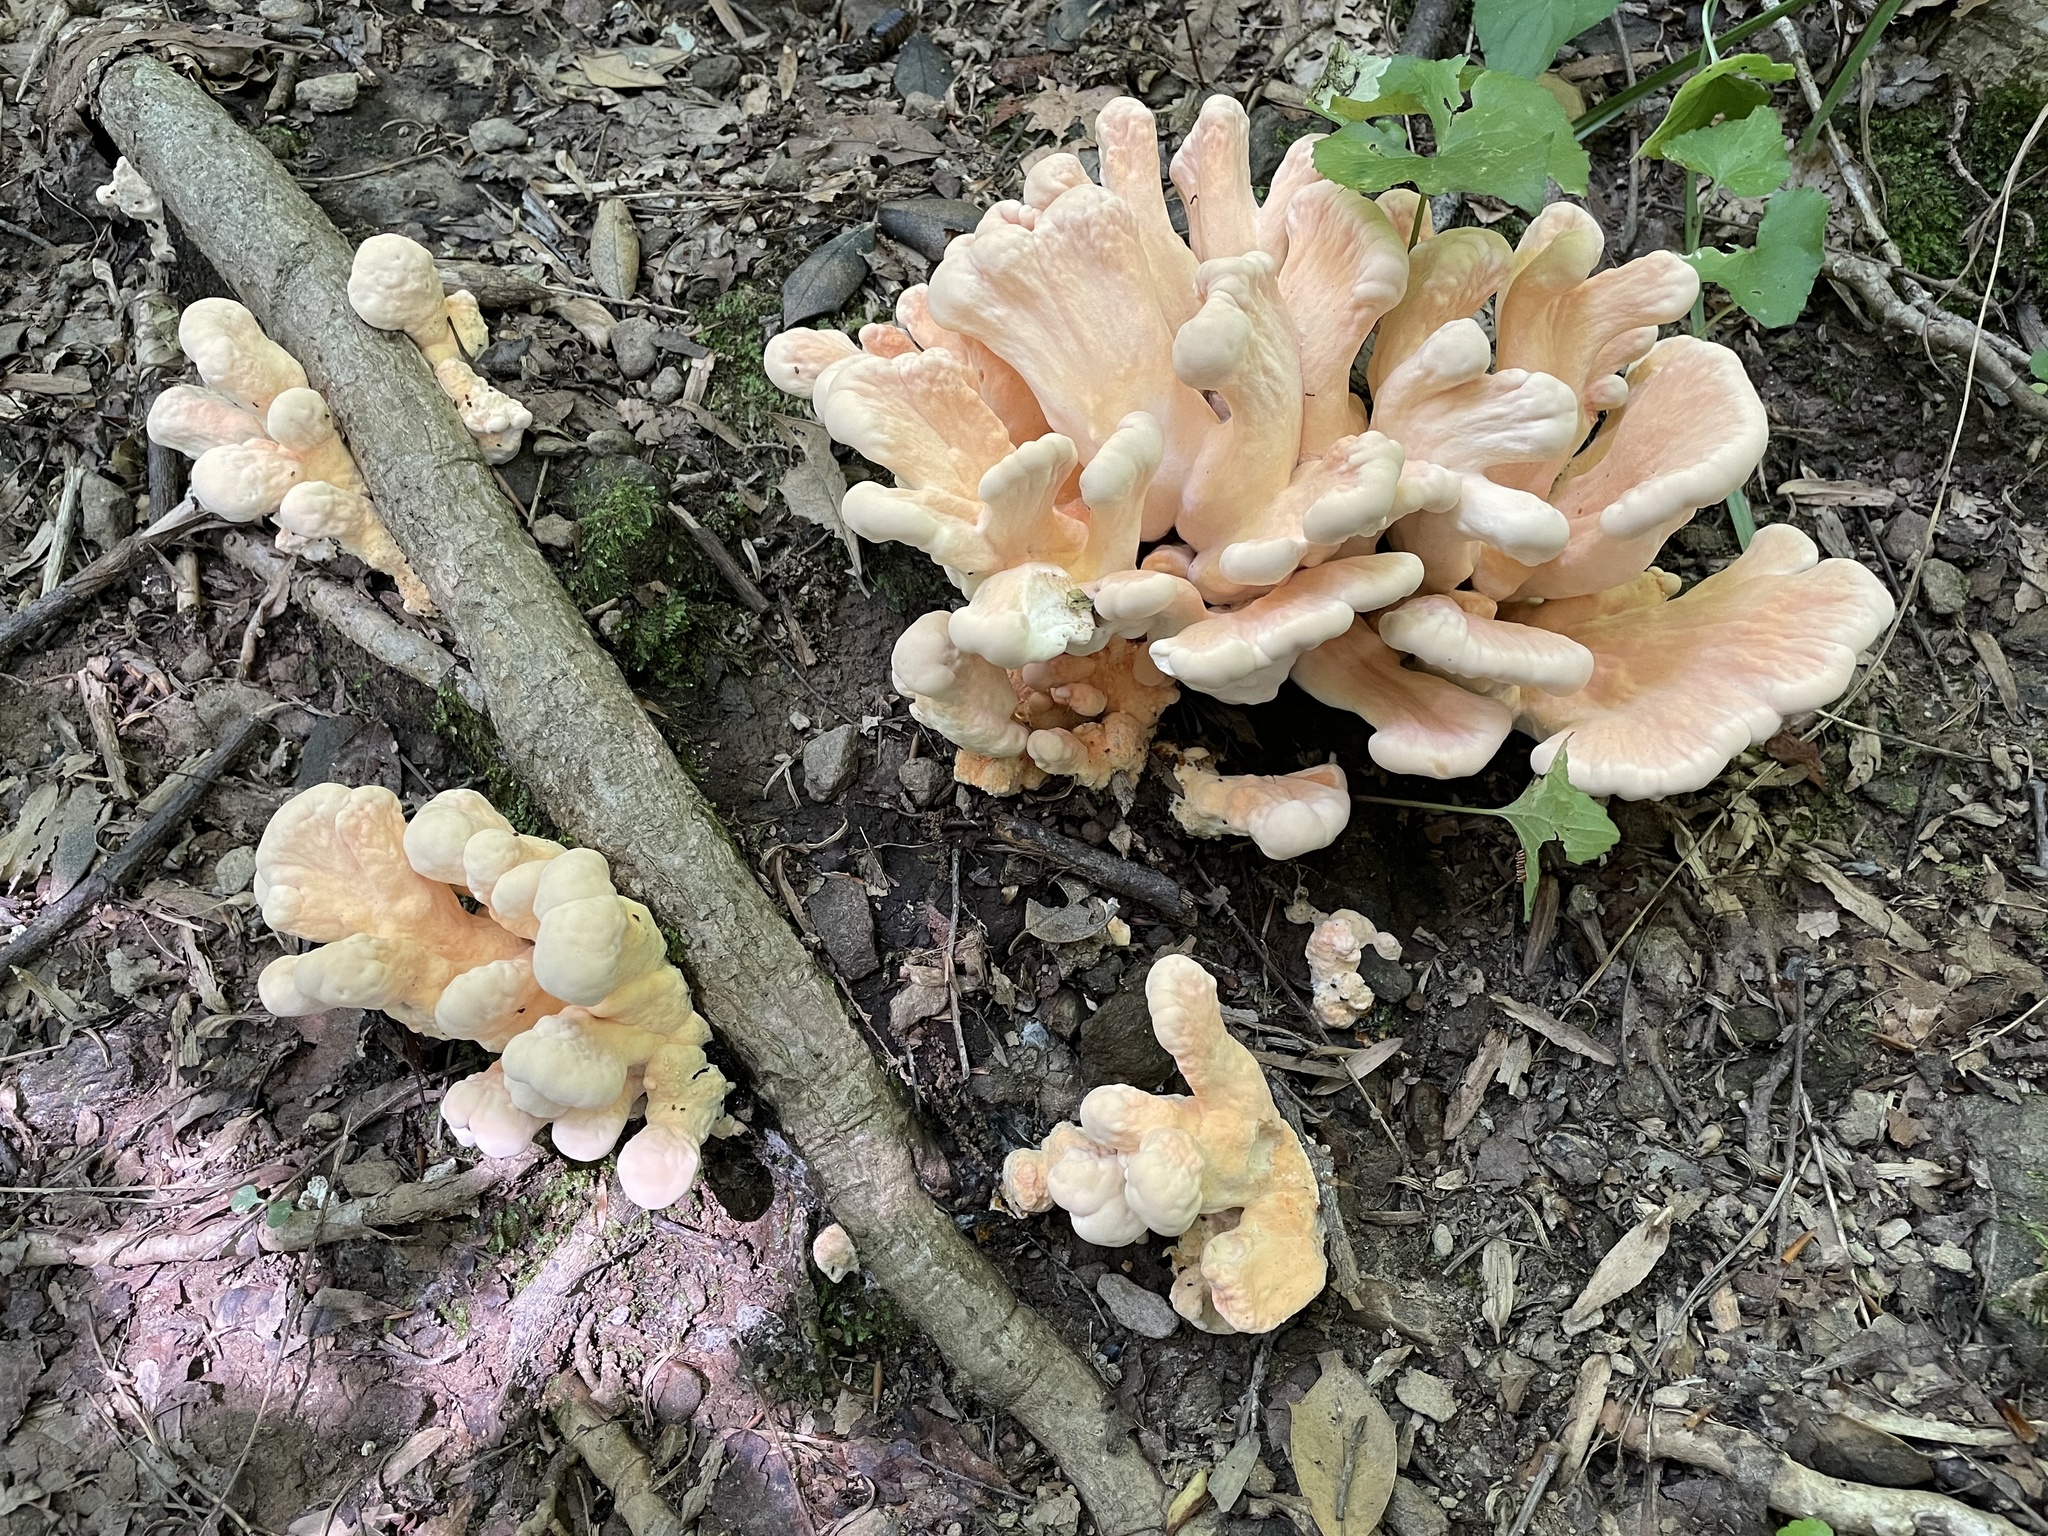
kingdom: Fungi
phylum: Basidiomycota
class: Agaricomycetes
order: Polyporales
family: Laetiporaceae
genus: Laetiporus
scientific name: Laetiporus sulphureus
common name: Chicken of the woods
